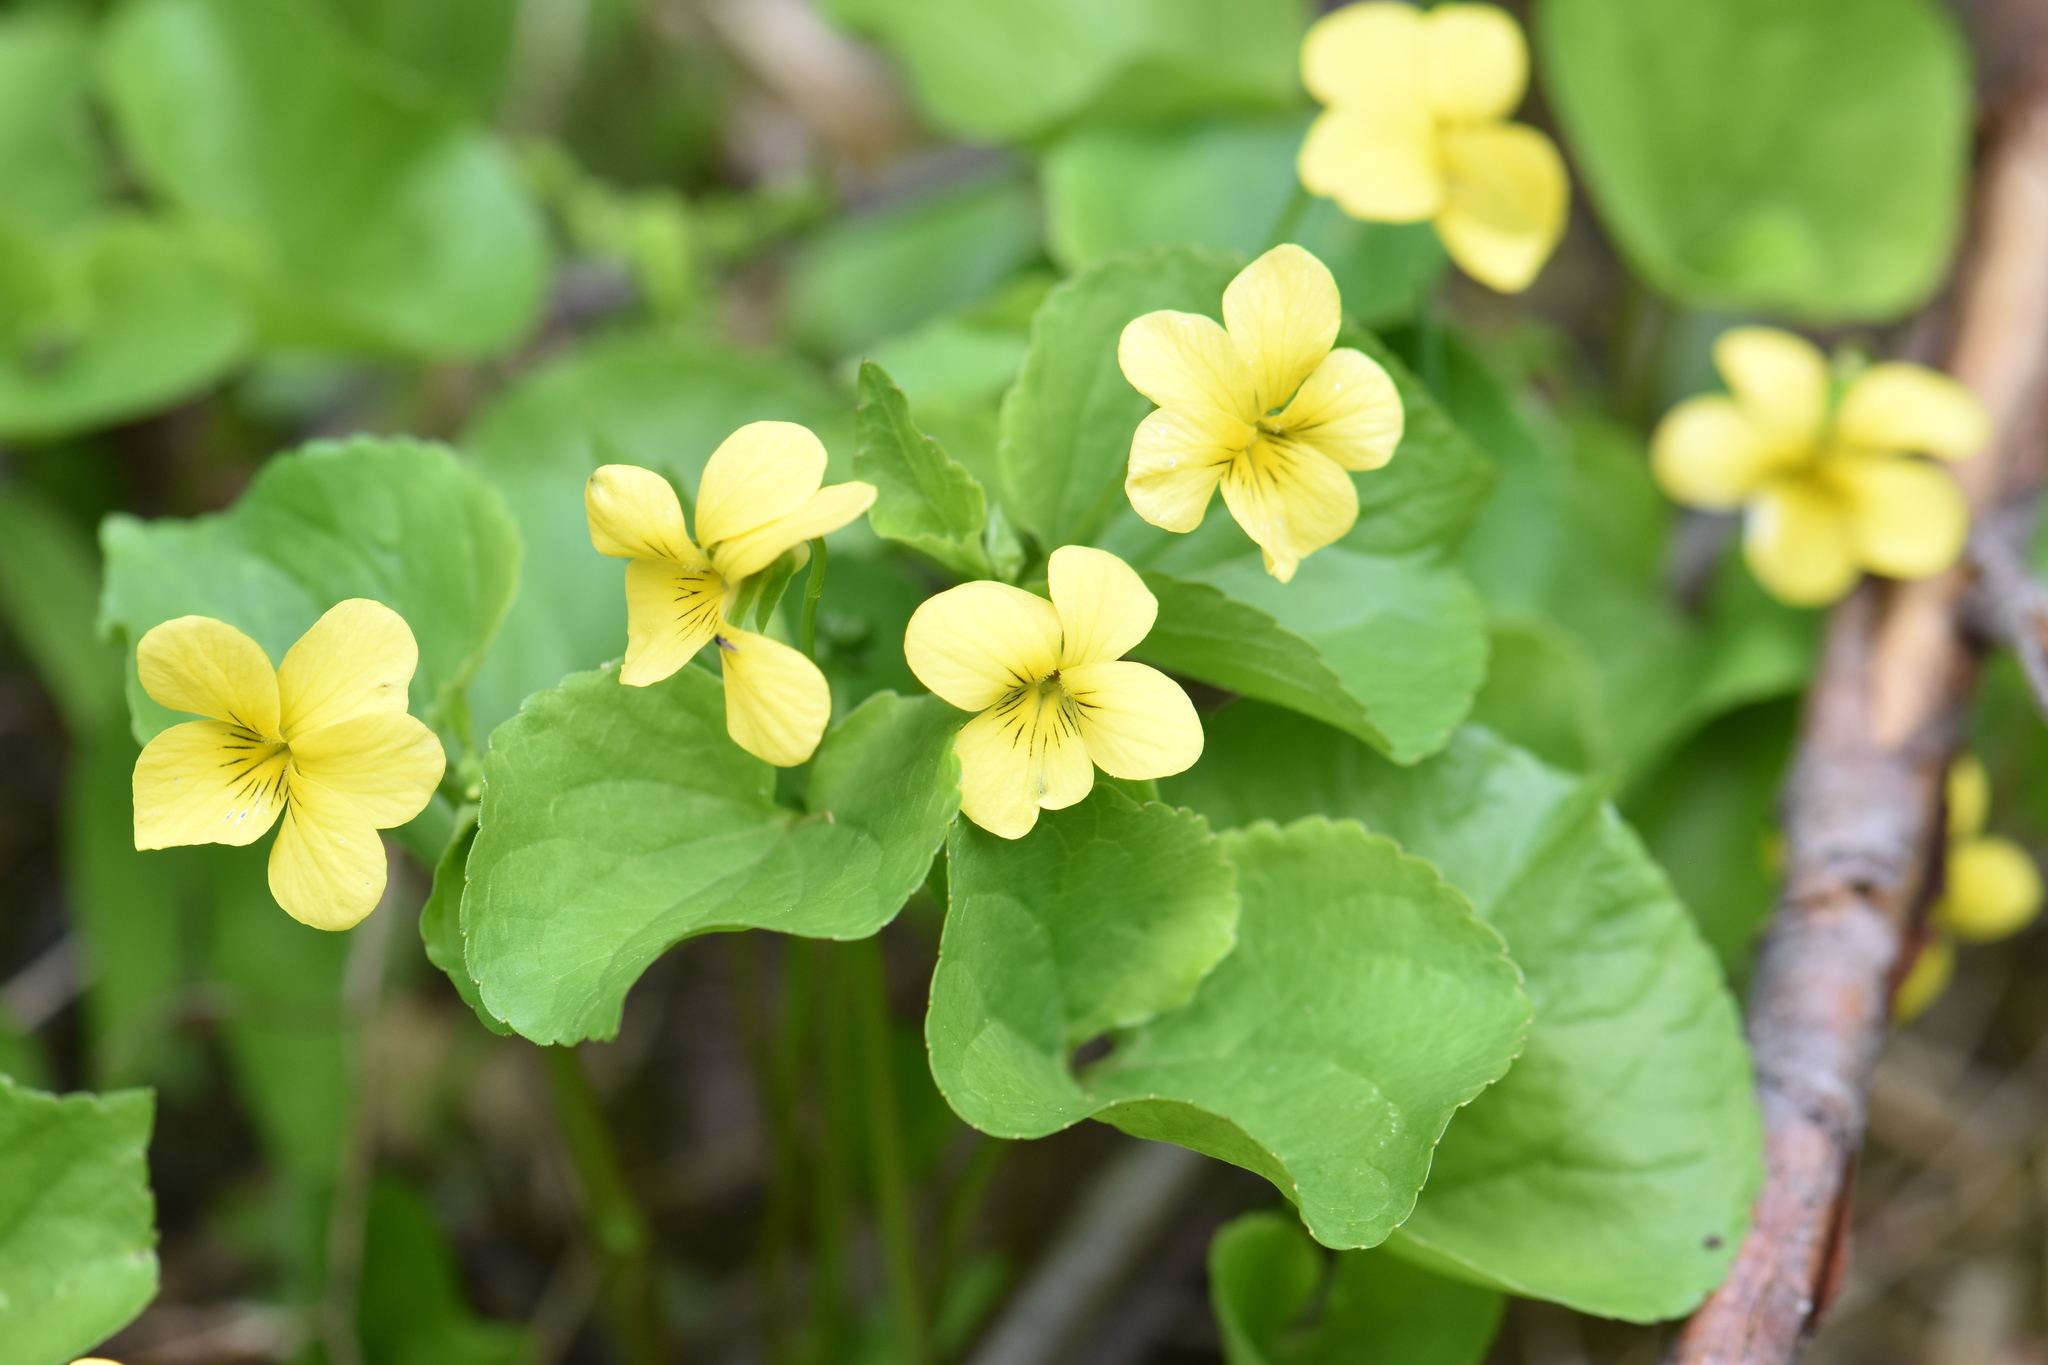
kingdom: Plantae
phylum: Tracheophyta
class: Magnoliopsida
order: Malpighiales
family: Violaceae
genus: Viola
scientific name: Viola glabella
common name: Stream violet
